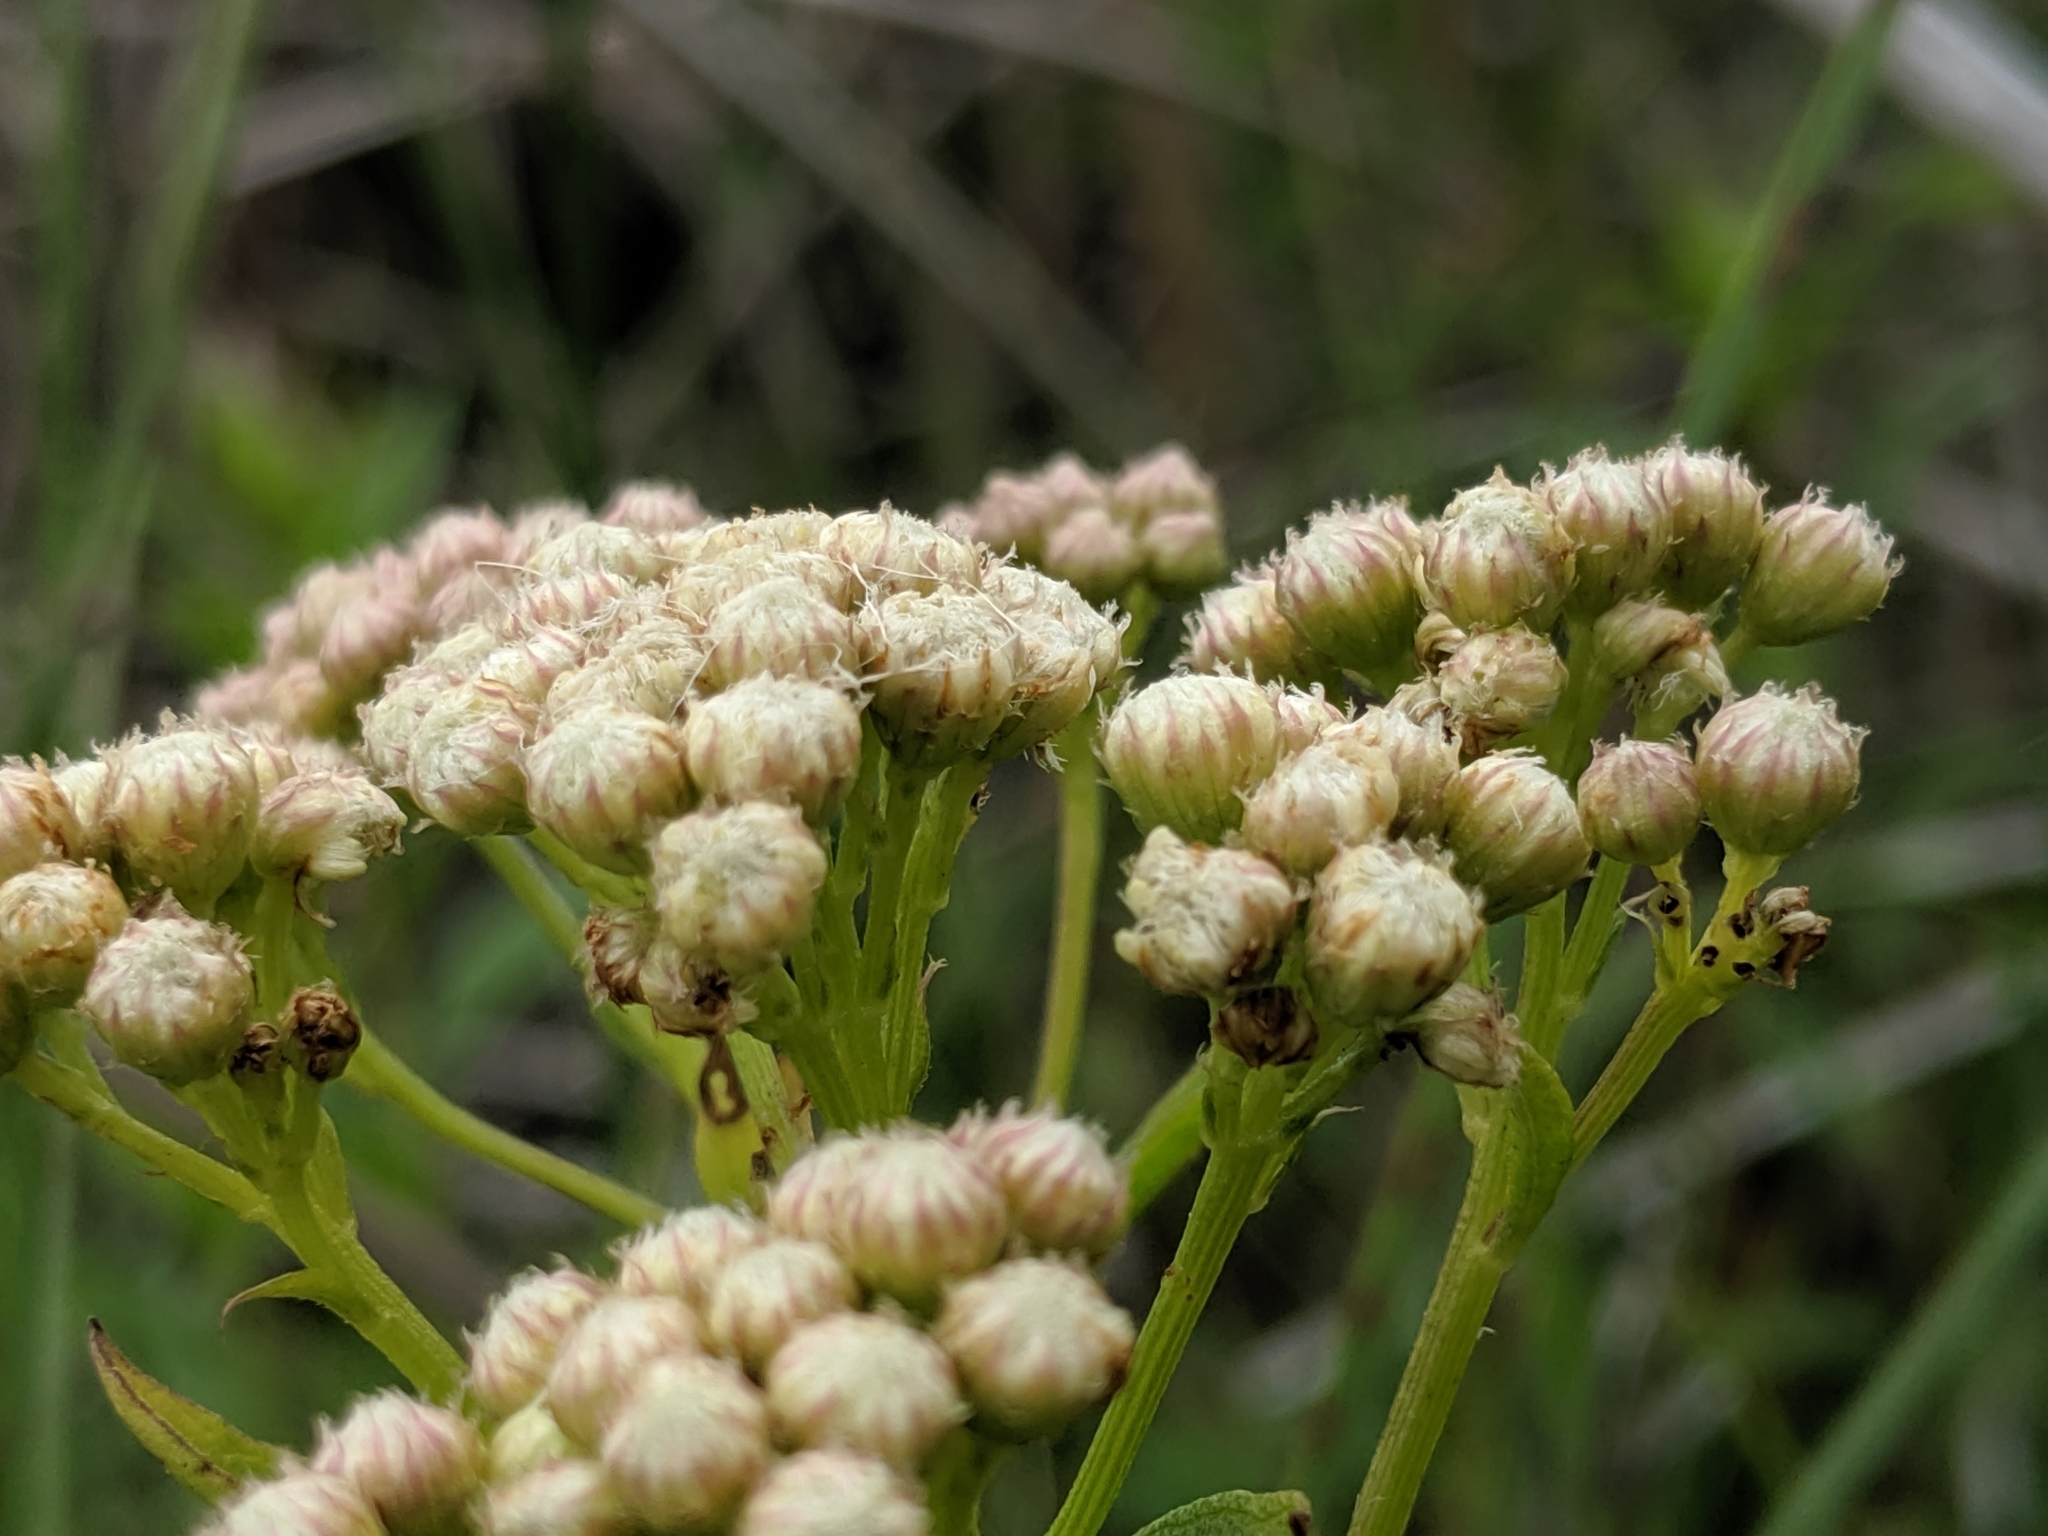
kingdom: Plantae
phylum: Tracheophyta
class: Magnoliopsida
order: Asterales
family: Asteraceae
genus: Baccharis
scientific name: Baccharis glutinosa
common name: Saltmarsh baccharis
